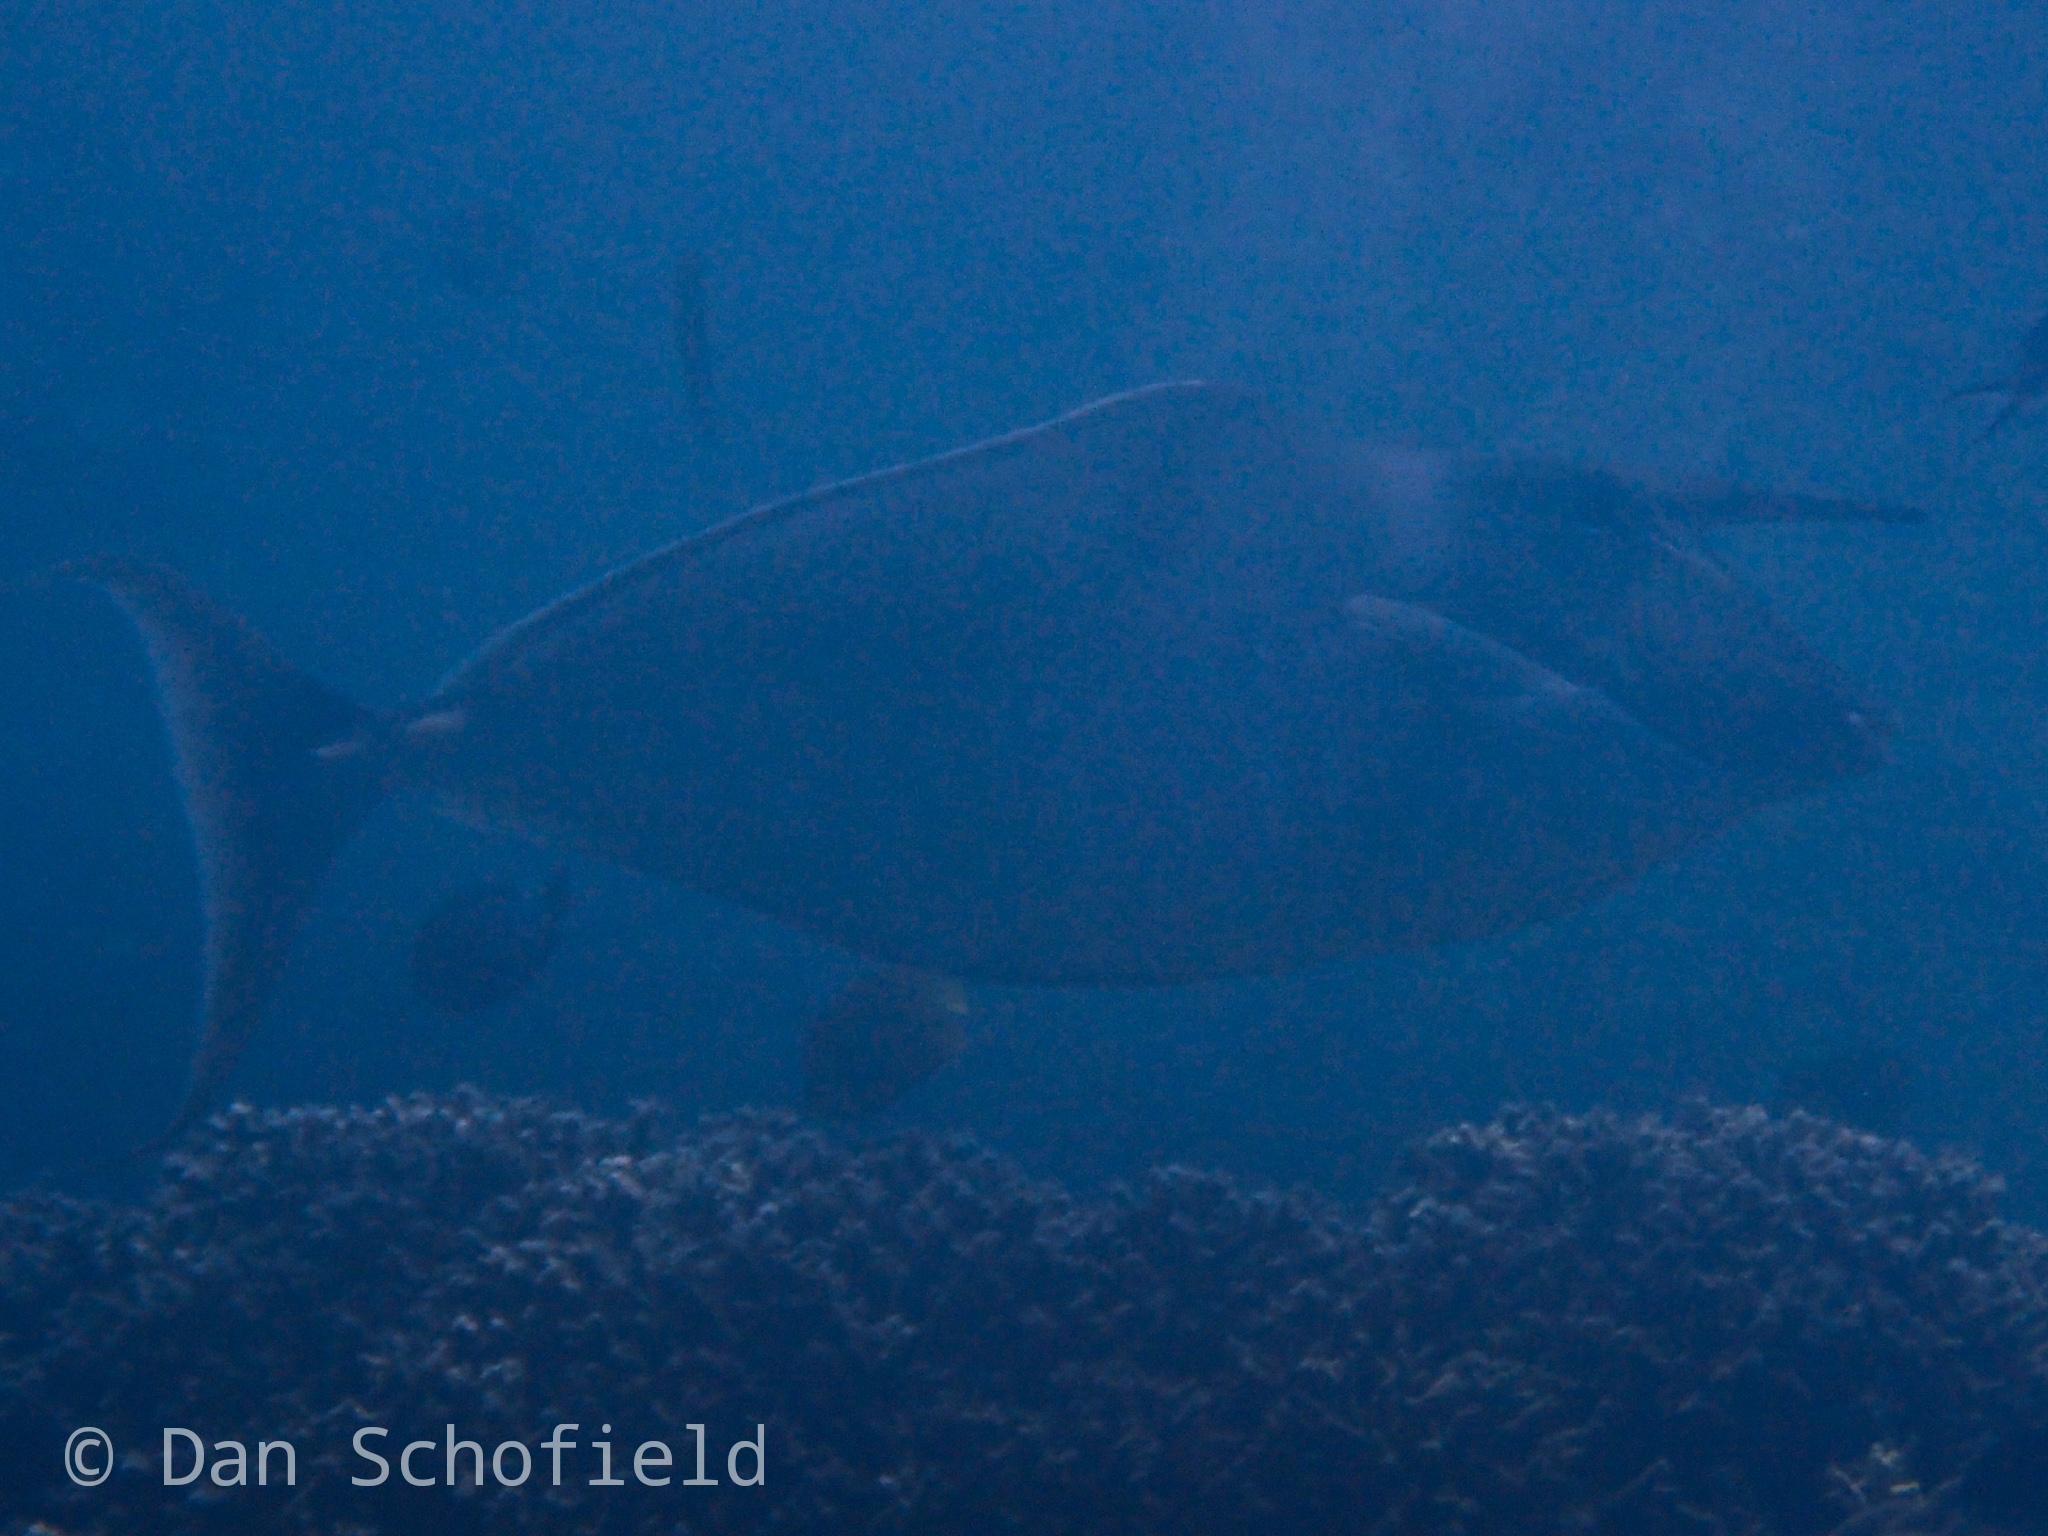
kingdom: Animalia
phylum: Chordata
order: Perciformes
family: Acanthuridae
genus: Naso
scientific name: Naso brachycentron
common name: Humpback unicornfish
